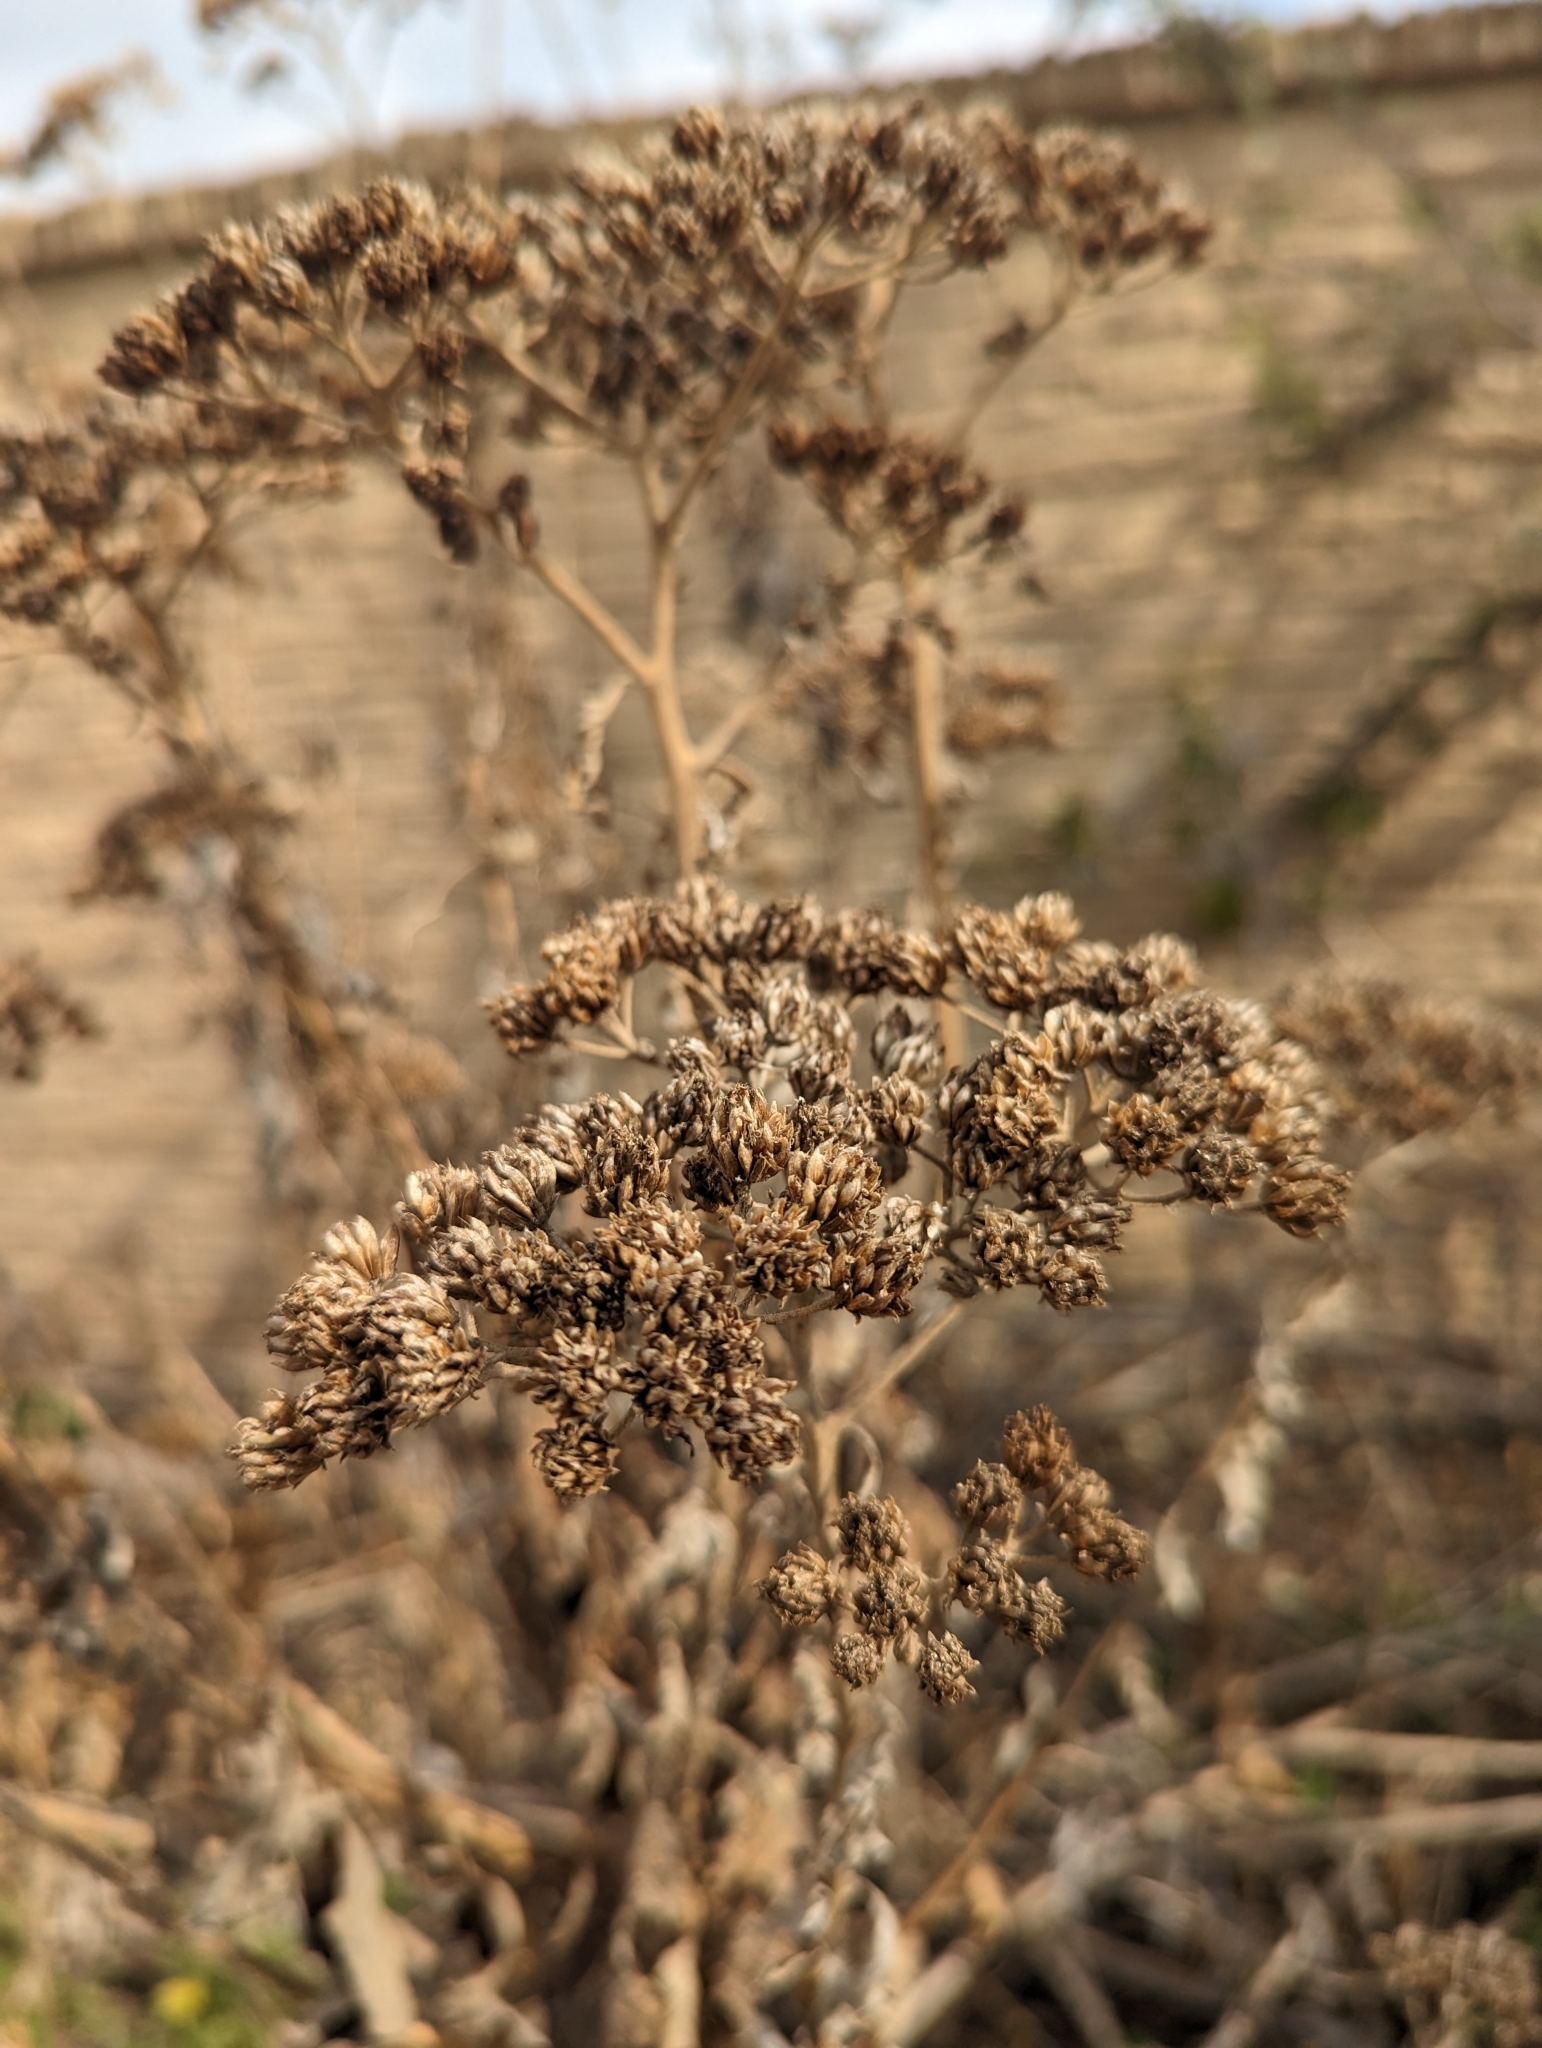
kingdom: Plantae
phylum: Tracheophyta
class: Magnoliopsida
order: Asterales
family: Asteraceae
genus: Verbesina
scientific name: Verbesina virginica
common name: Frostweed
